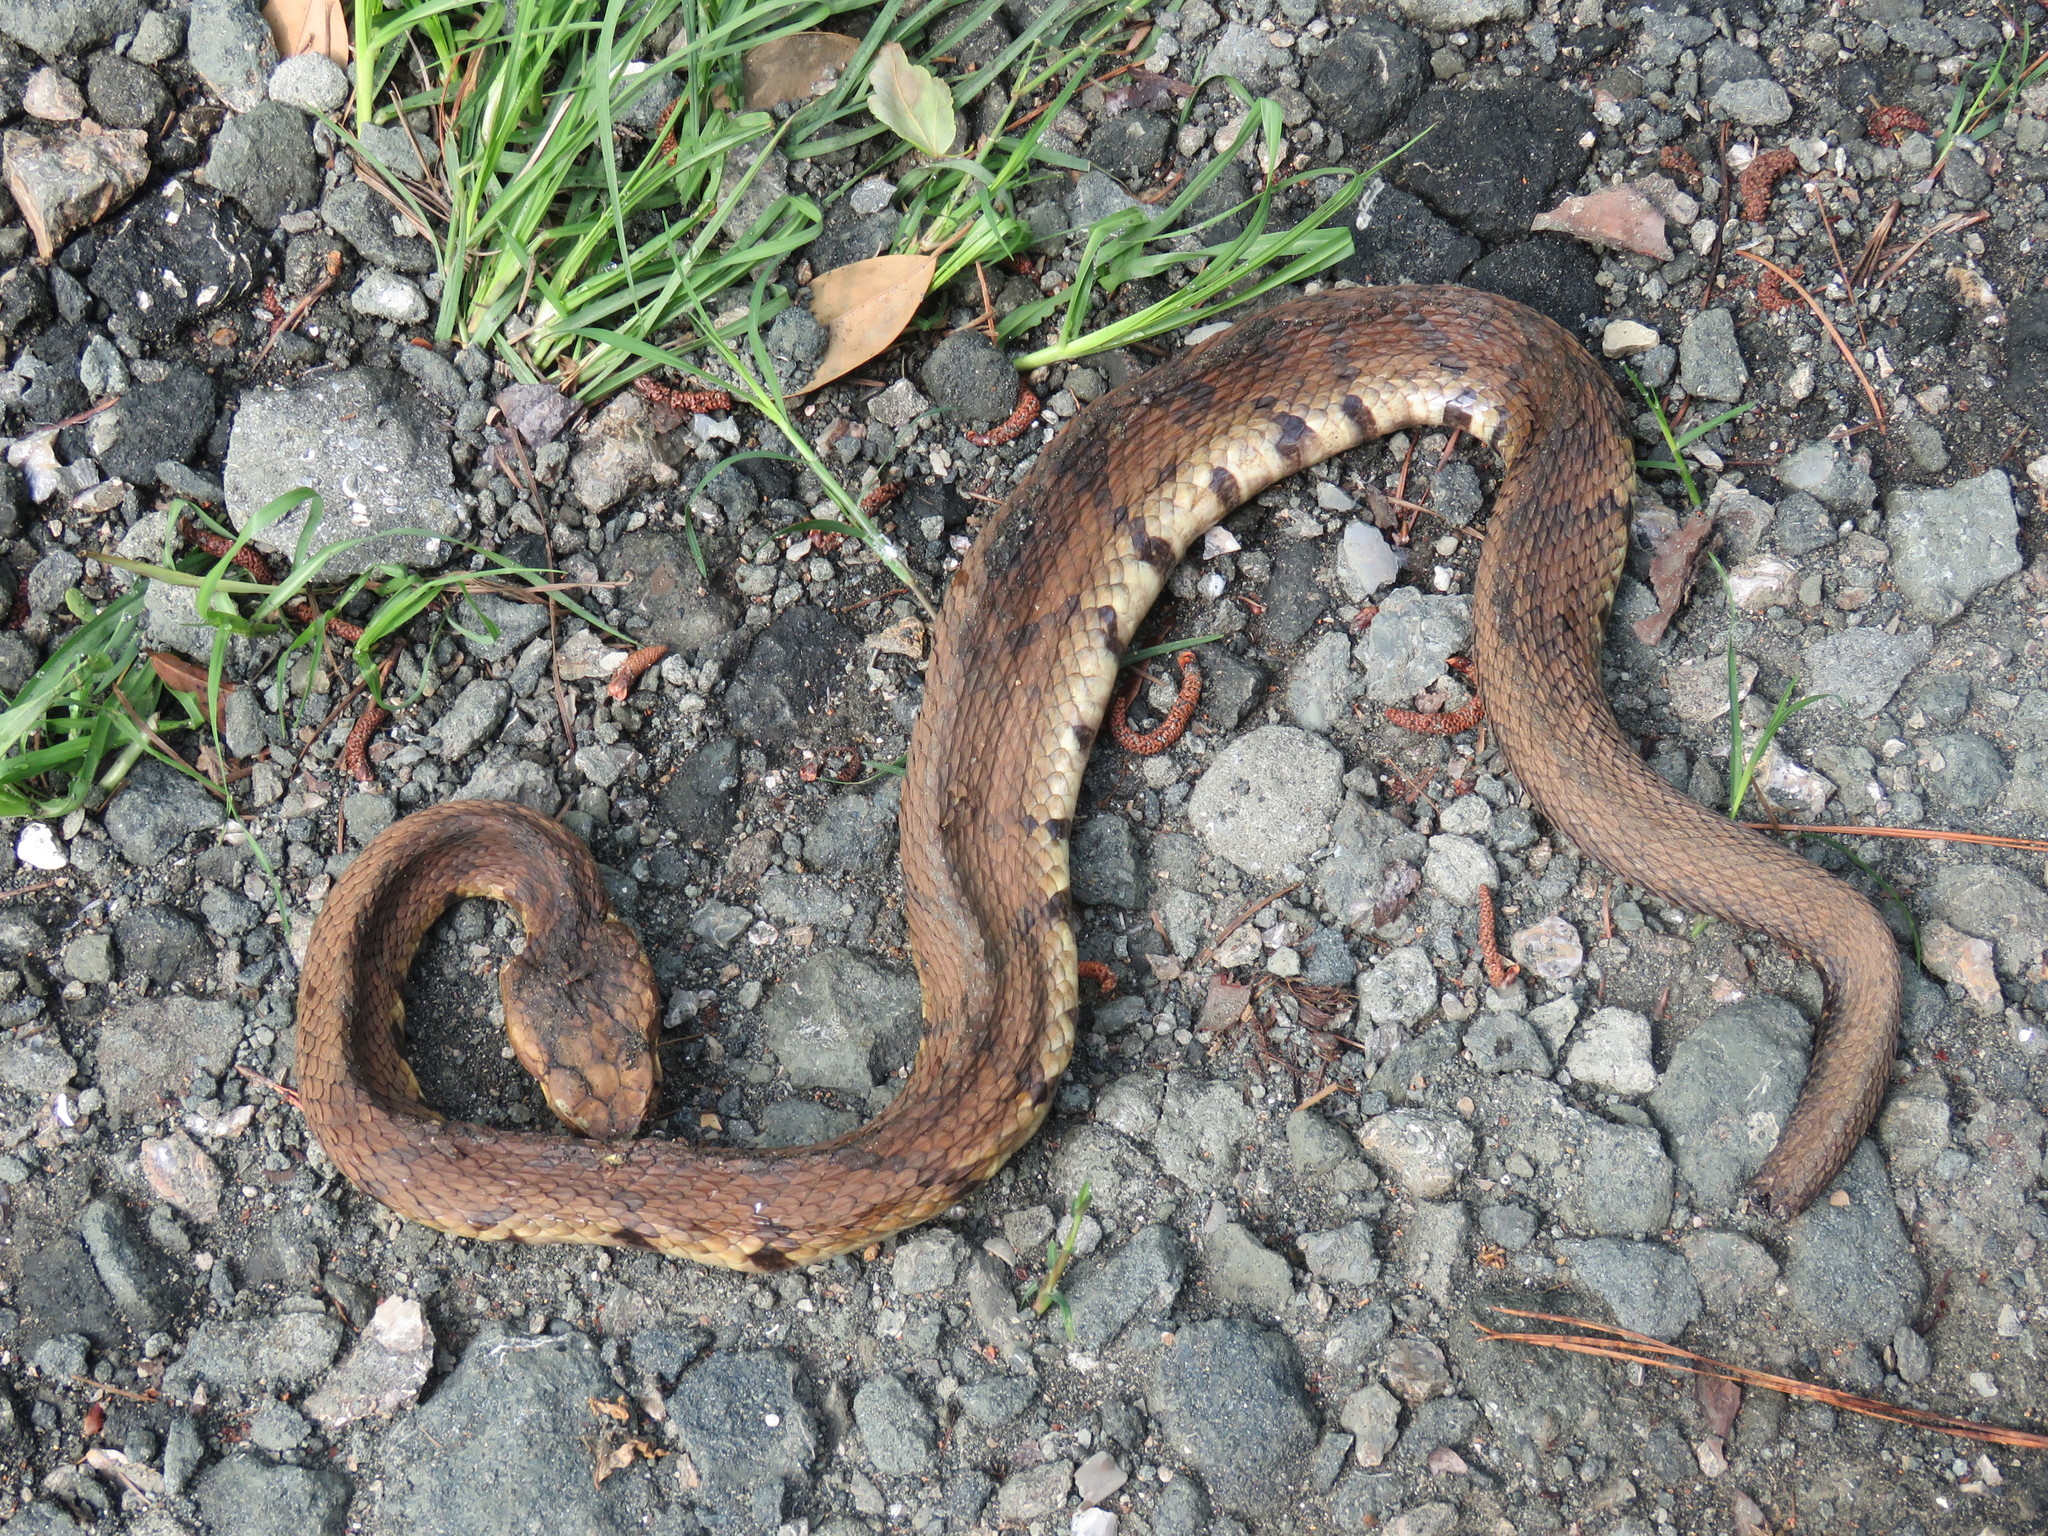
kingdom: Animalia
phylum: Chordata
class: Squamata
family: Viperidae
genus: Agkistrodon
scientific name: Agkistrodon piscivorus
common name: Cottonmouth
